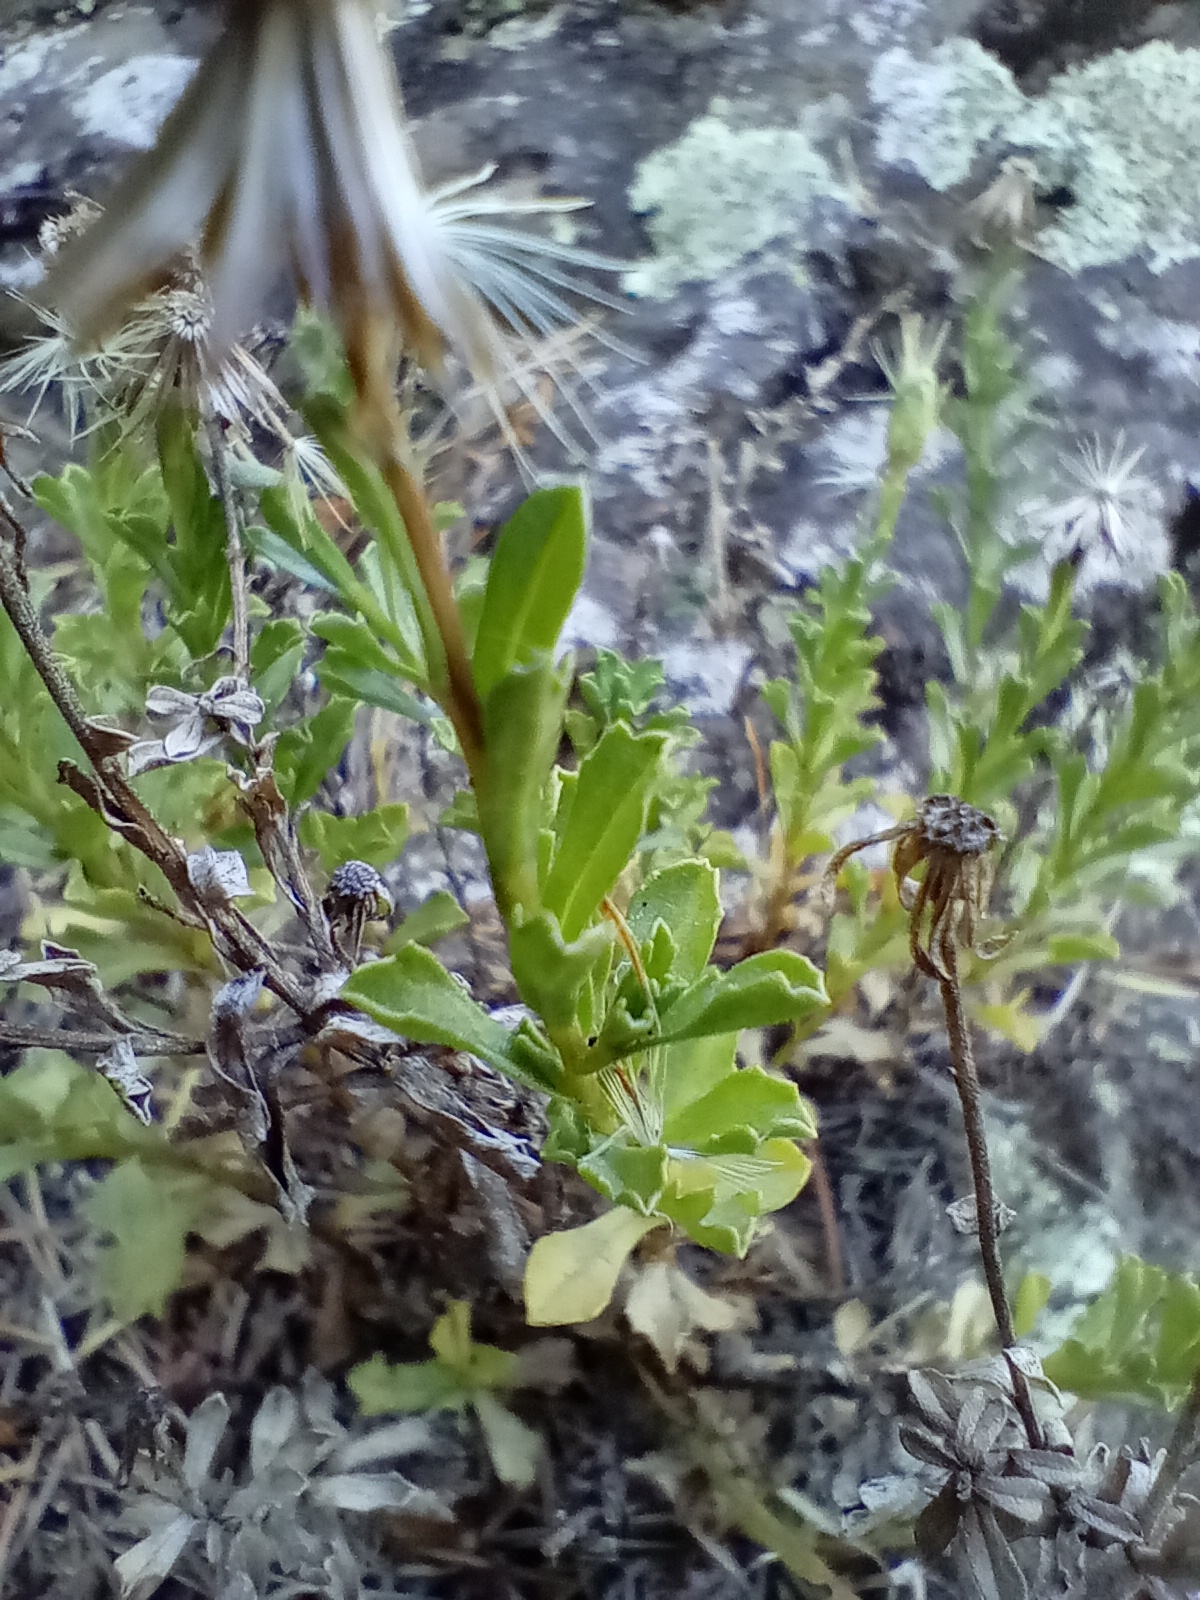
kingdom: Plantae
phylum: Tracheophyta
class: Magnoliopsida
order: Asterales
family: Asteraceae
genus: Vittadinia
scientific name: Vittadinia australis
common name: White fuzzweed
